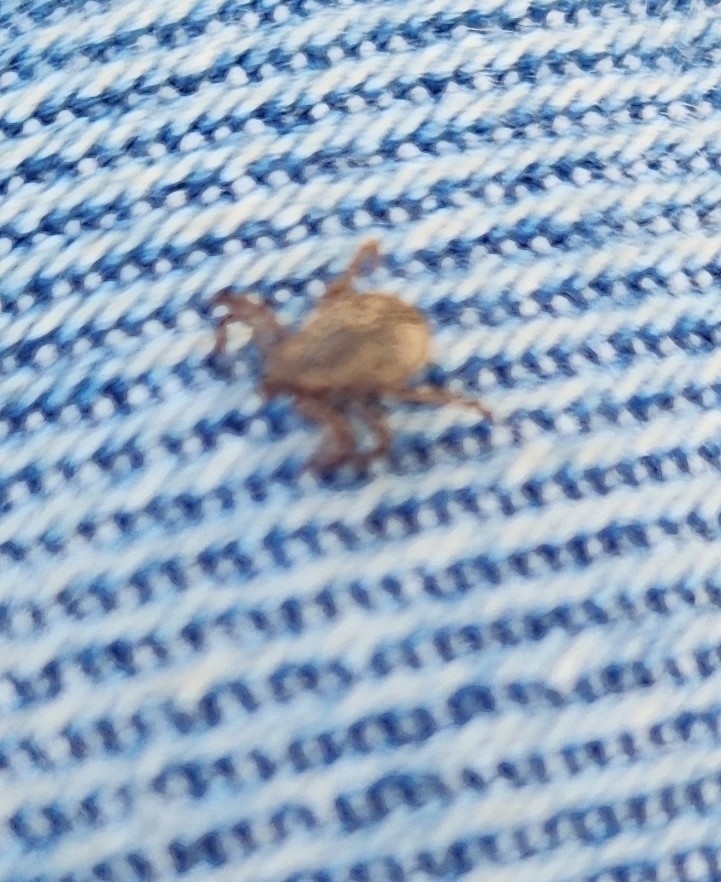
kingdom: Animalia
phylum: Arthropoda
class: Arachnida
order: Ixodida
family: Ixodidae
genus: Dermacentor
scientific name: Dermacentor variabilis
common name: American dog tick
